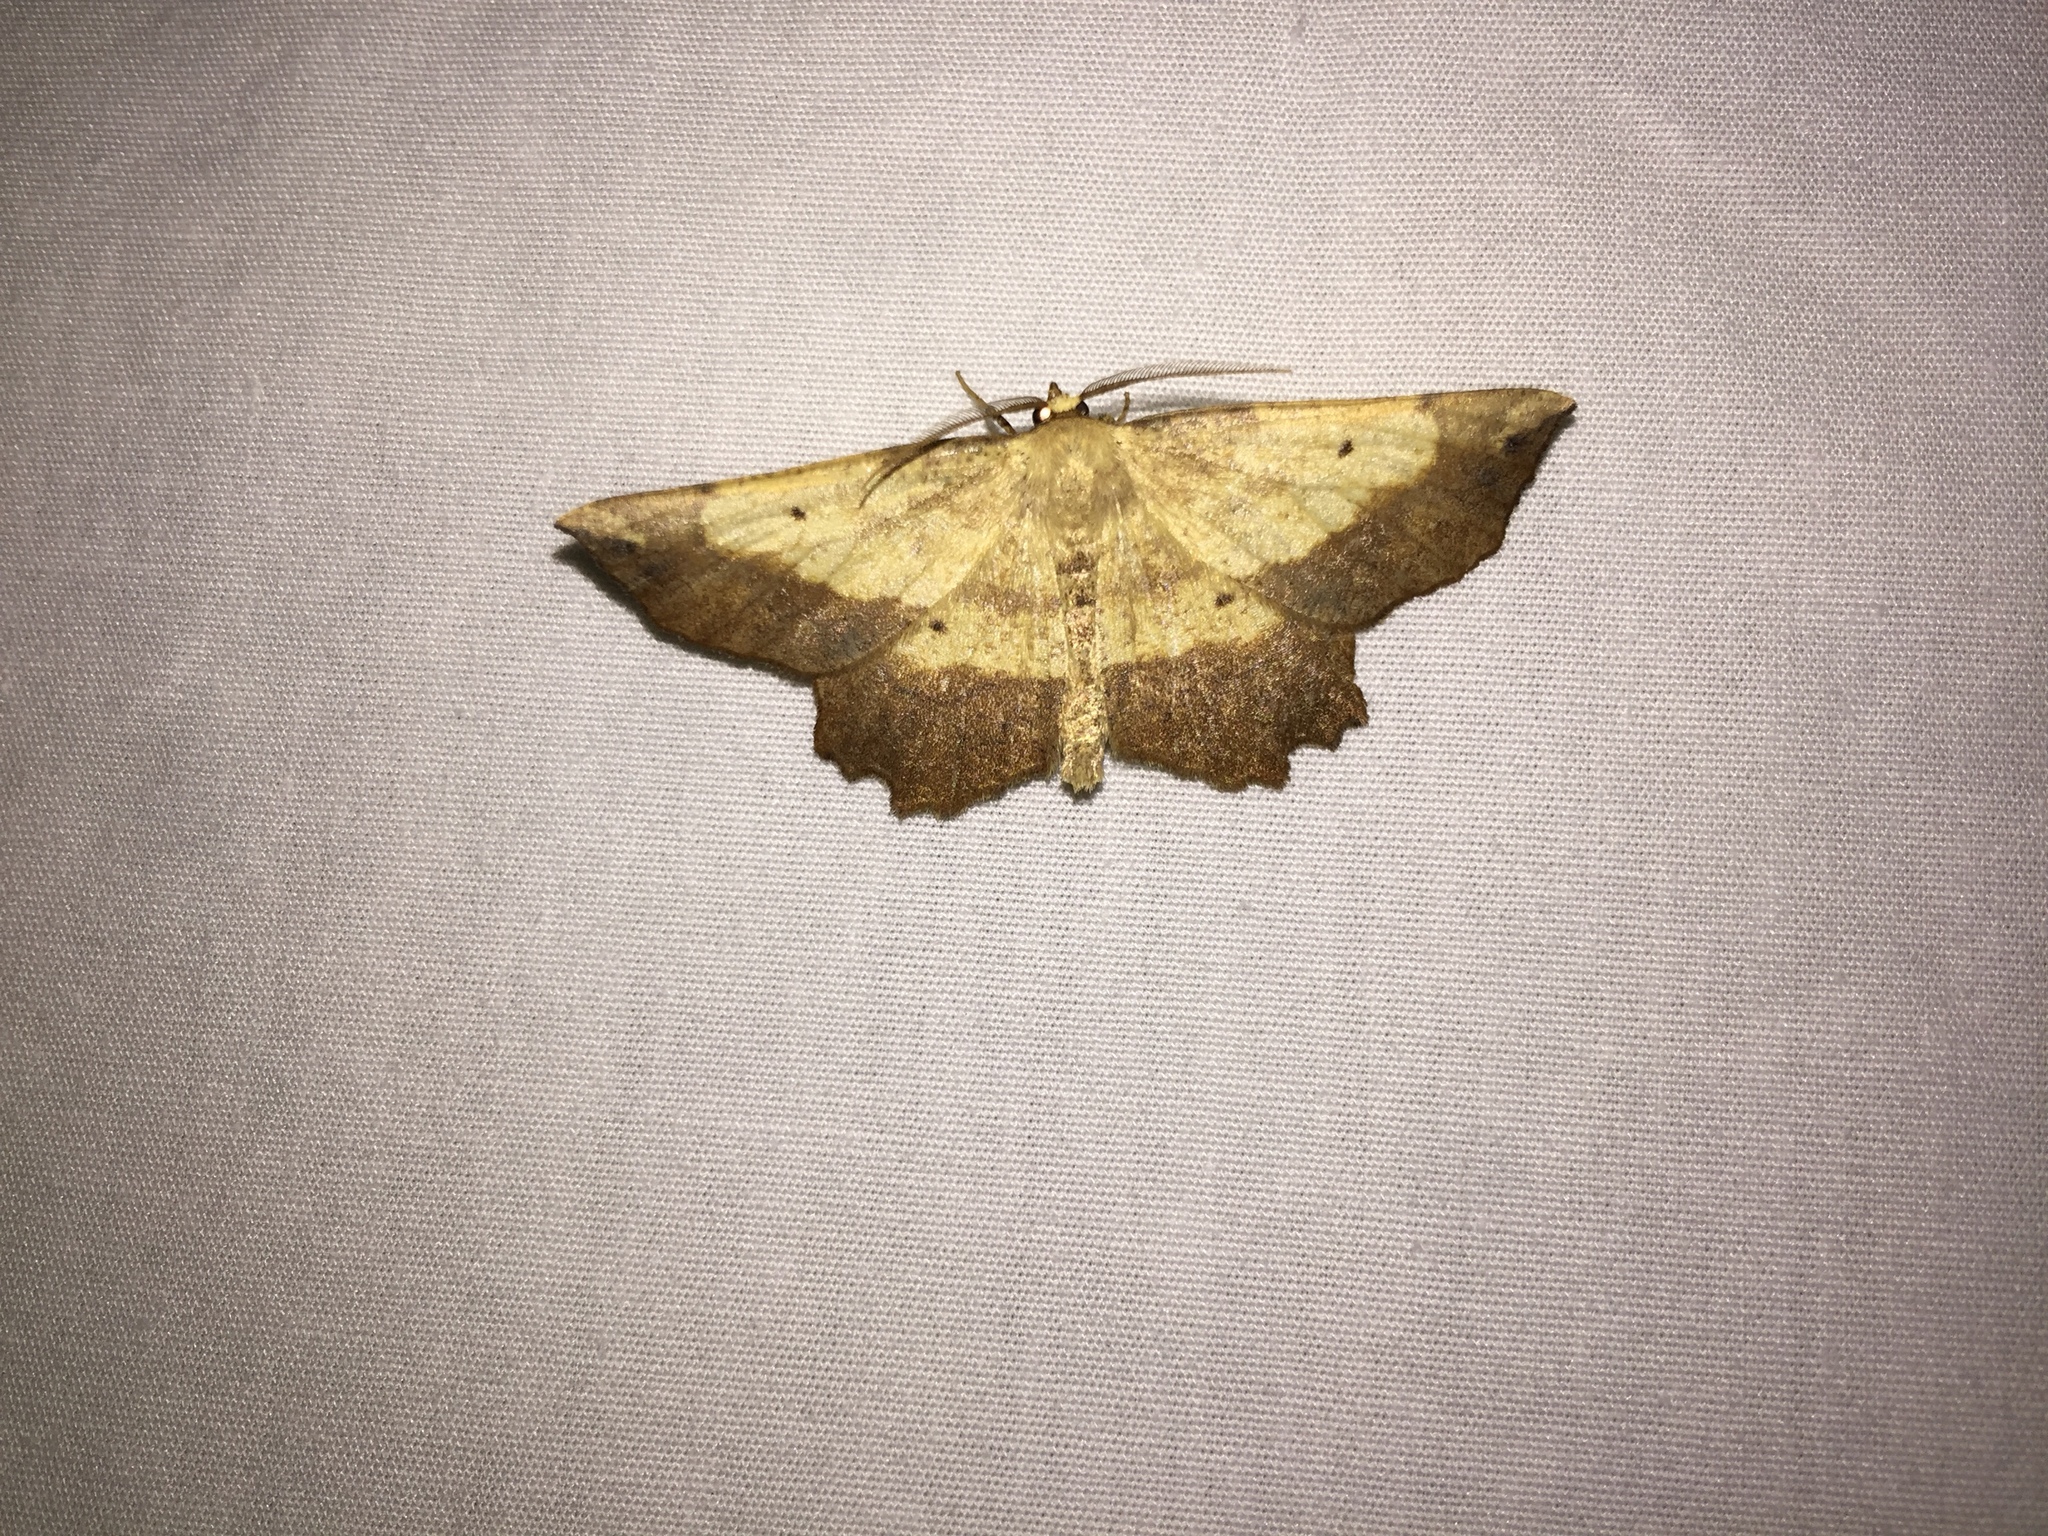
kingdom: Animalia
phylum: Arthropoda
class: Insecta
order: Lepidoptera
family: Geometridae
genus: Euchlaena
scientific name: Euchlaena serrata
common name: Saw wing
